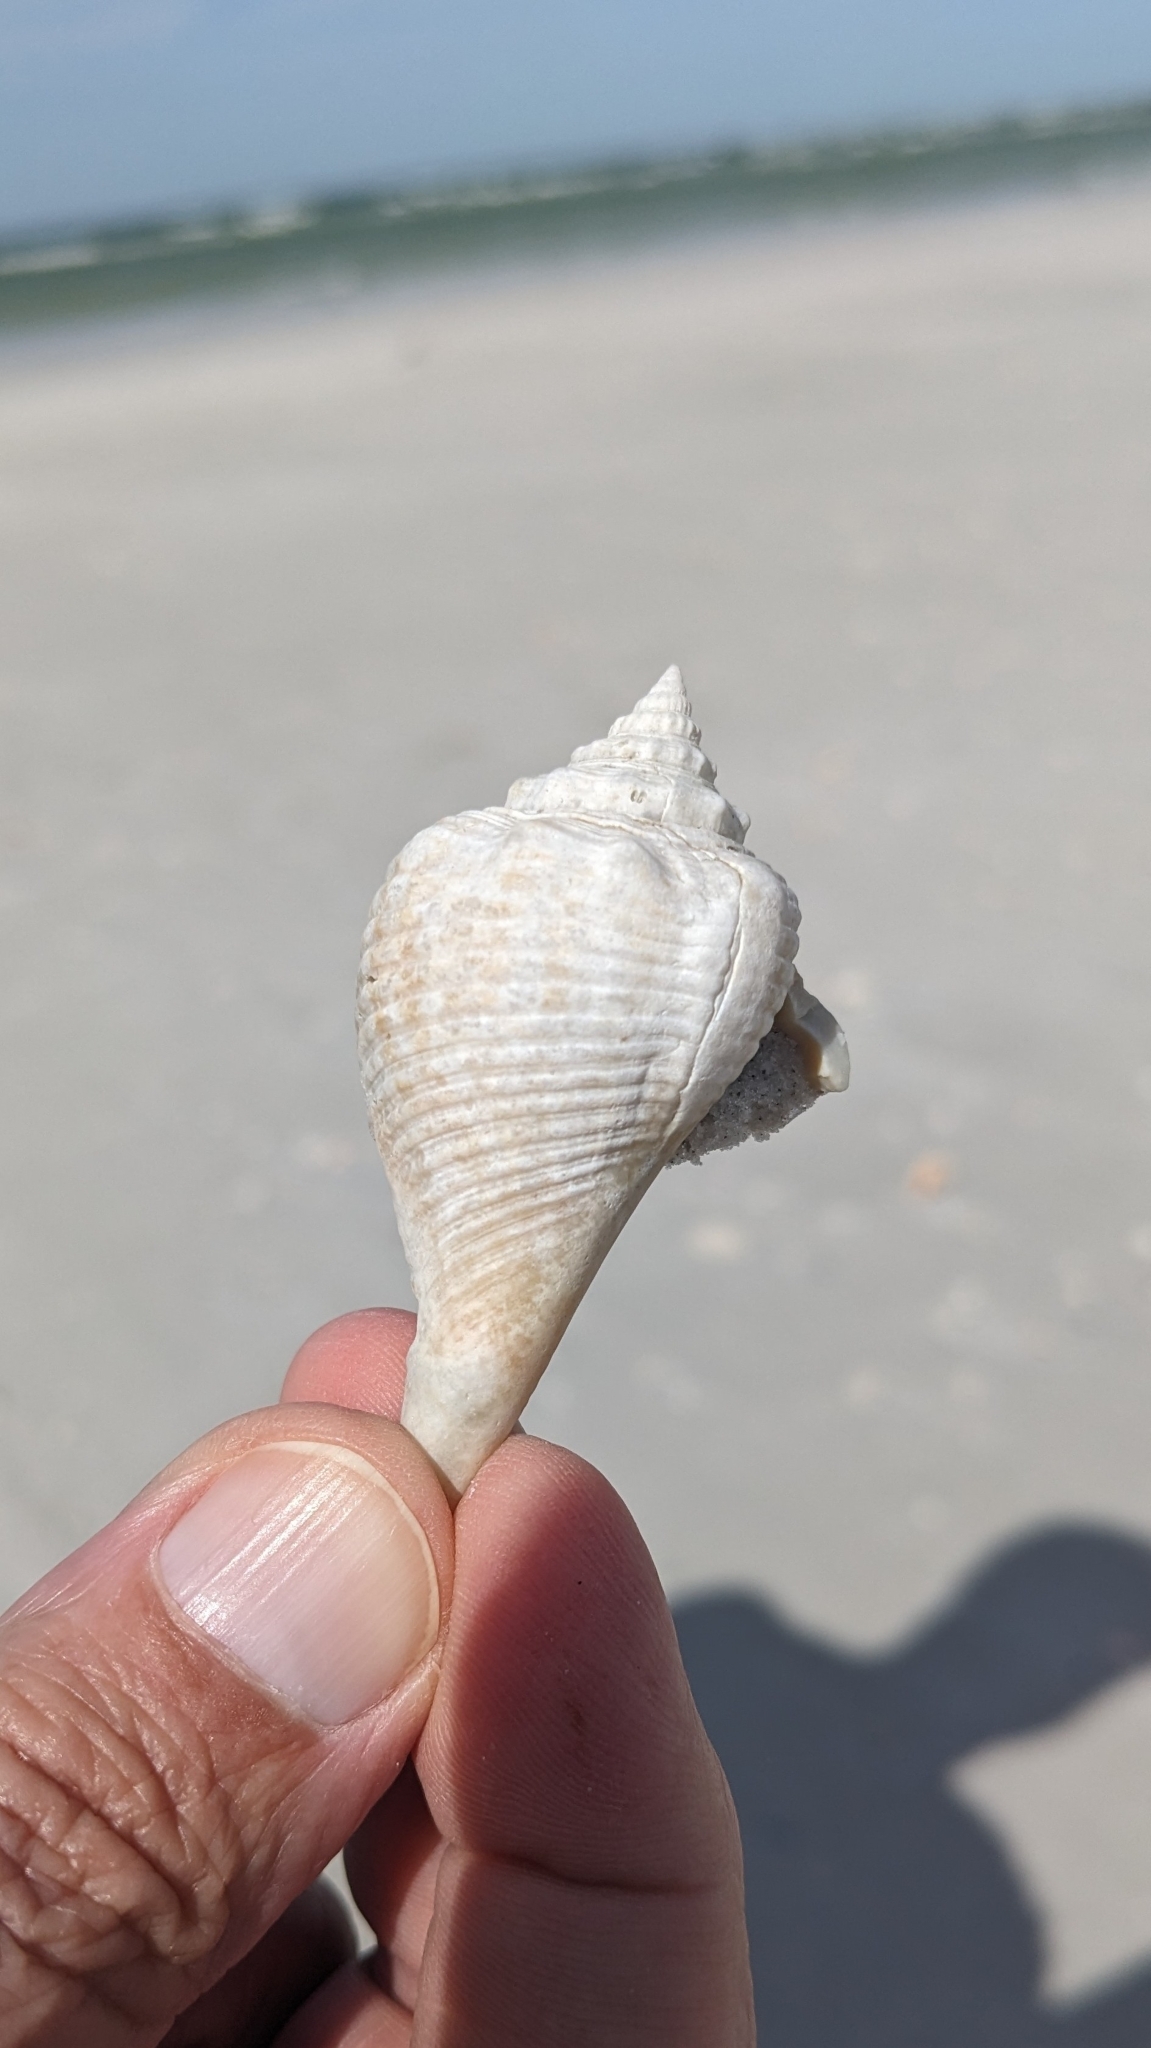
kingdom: Animalia
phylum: Mollusca
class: Gastropoda
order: Littorinimorpha
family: Strombidae
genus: Strombus
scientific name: Strombus alatus
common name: Florida fighting conch
